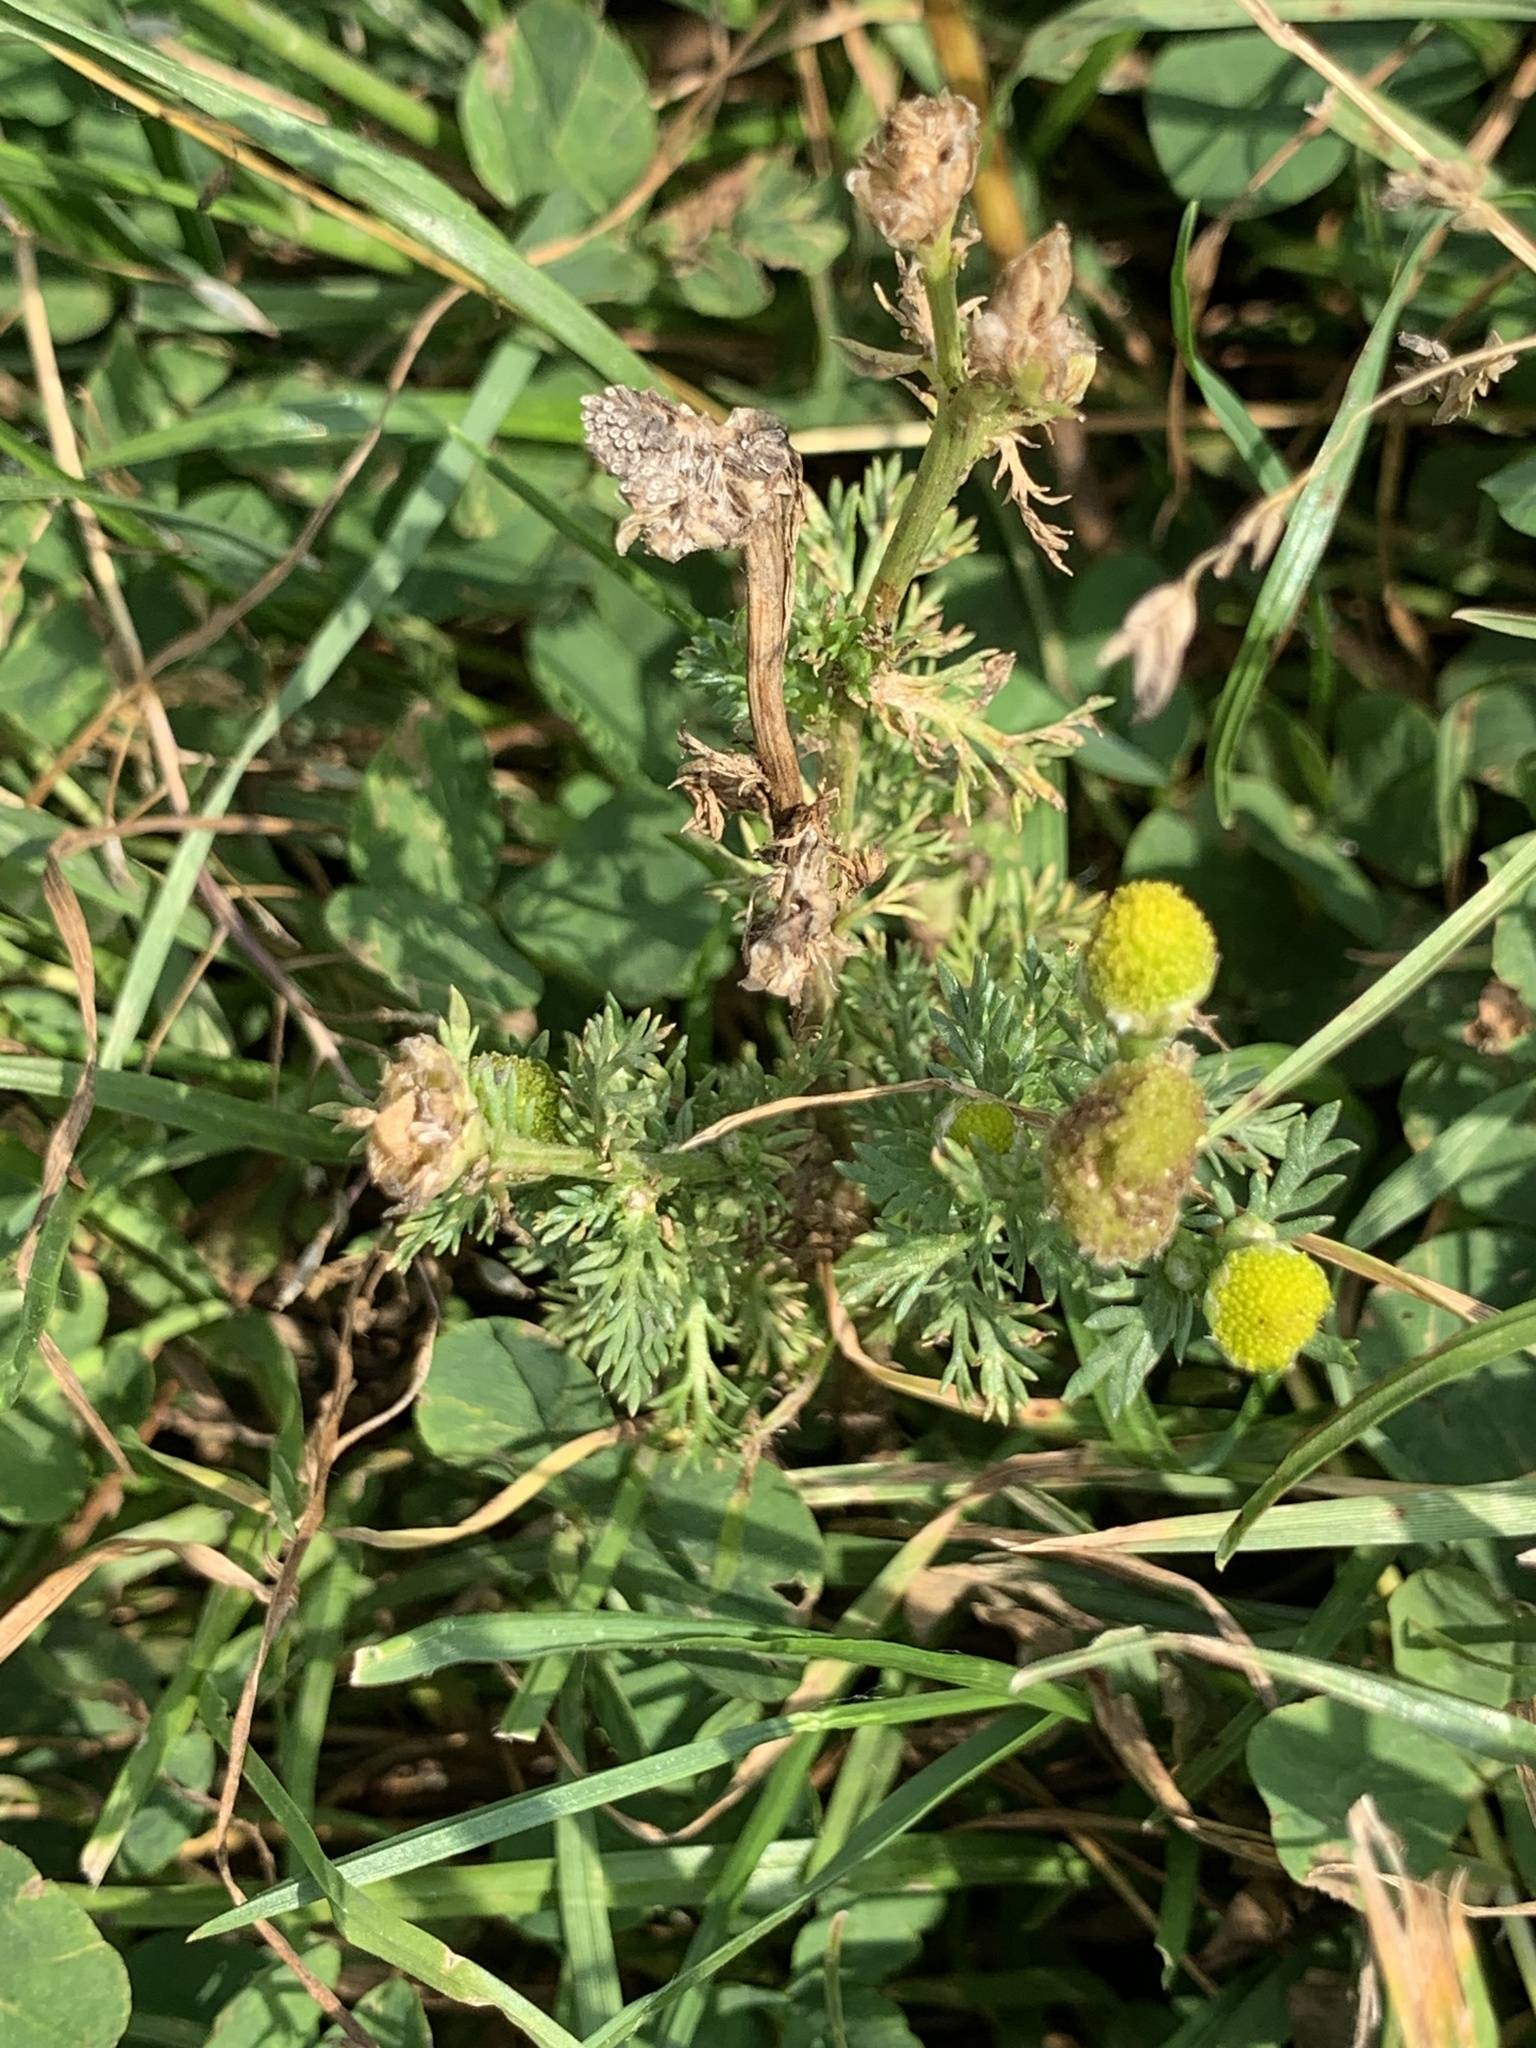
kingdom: Plantae
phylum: Tracheophyta
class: Magnoliopsida
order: Asterales
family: Asteraceae
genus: Matricaria
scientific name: Matricaria discoidea
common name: Disc mayweed
